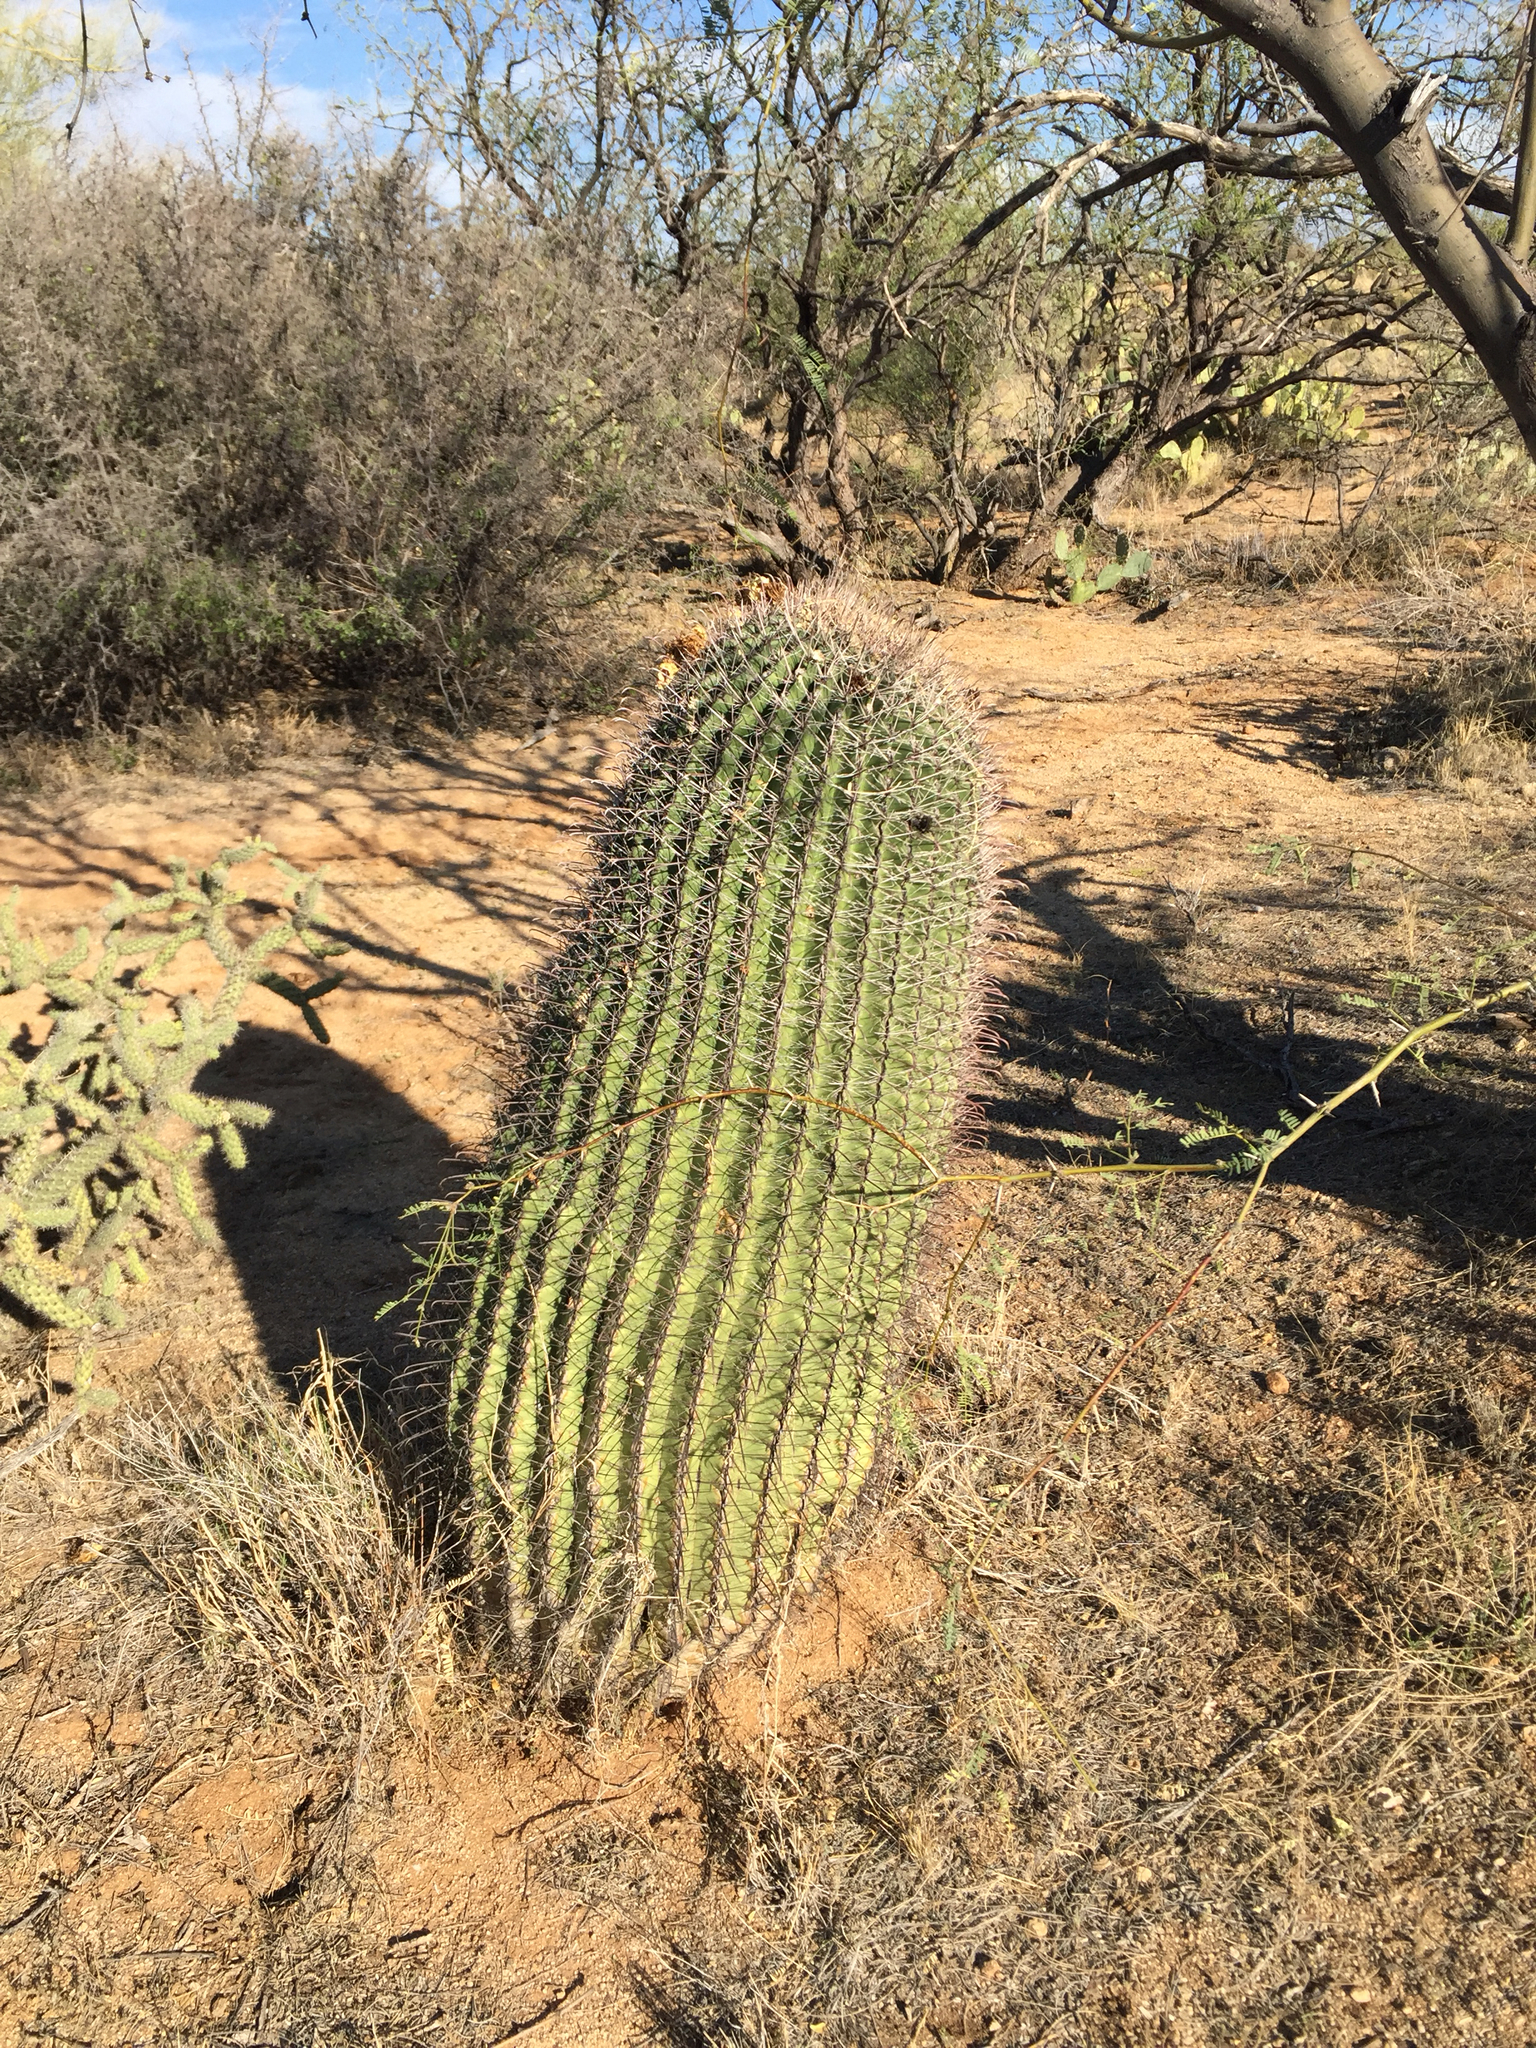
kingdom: Plantae
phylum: Tracheophyta
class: Magnoliopsida
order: Caryophyllales
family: Cactaceae
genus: Ferocactus
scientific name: Ferocactus wislizeni
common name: Candy barrel cactus
